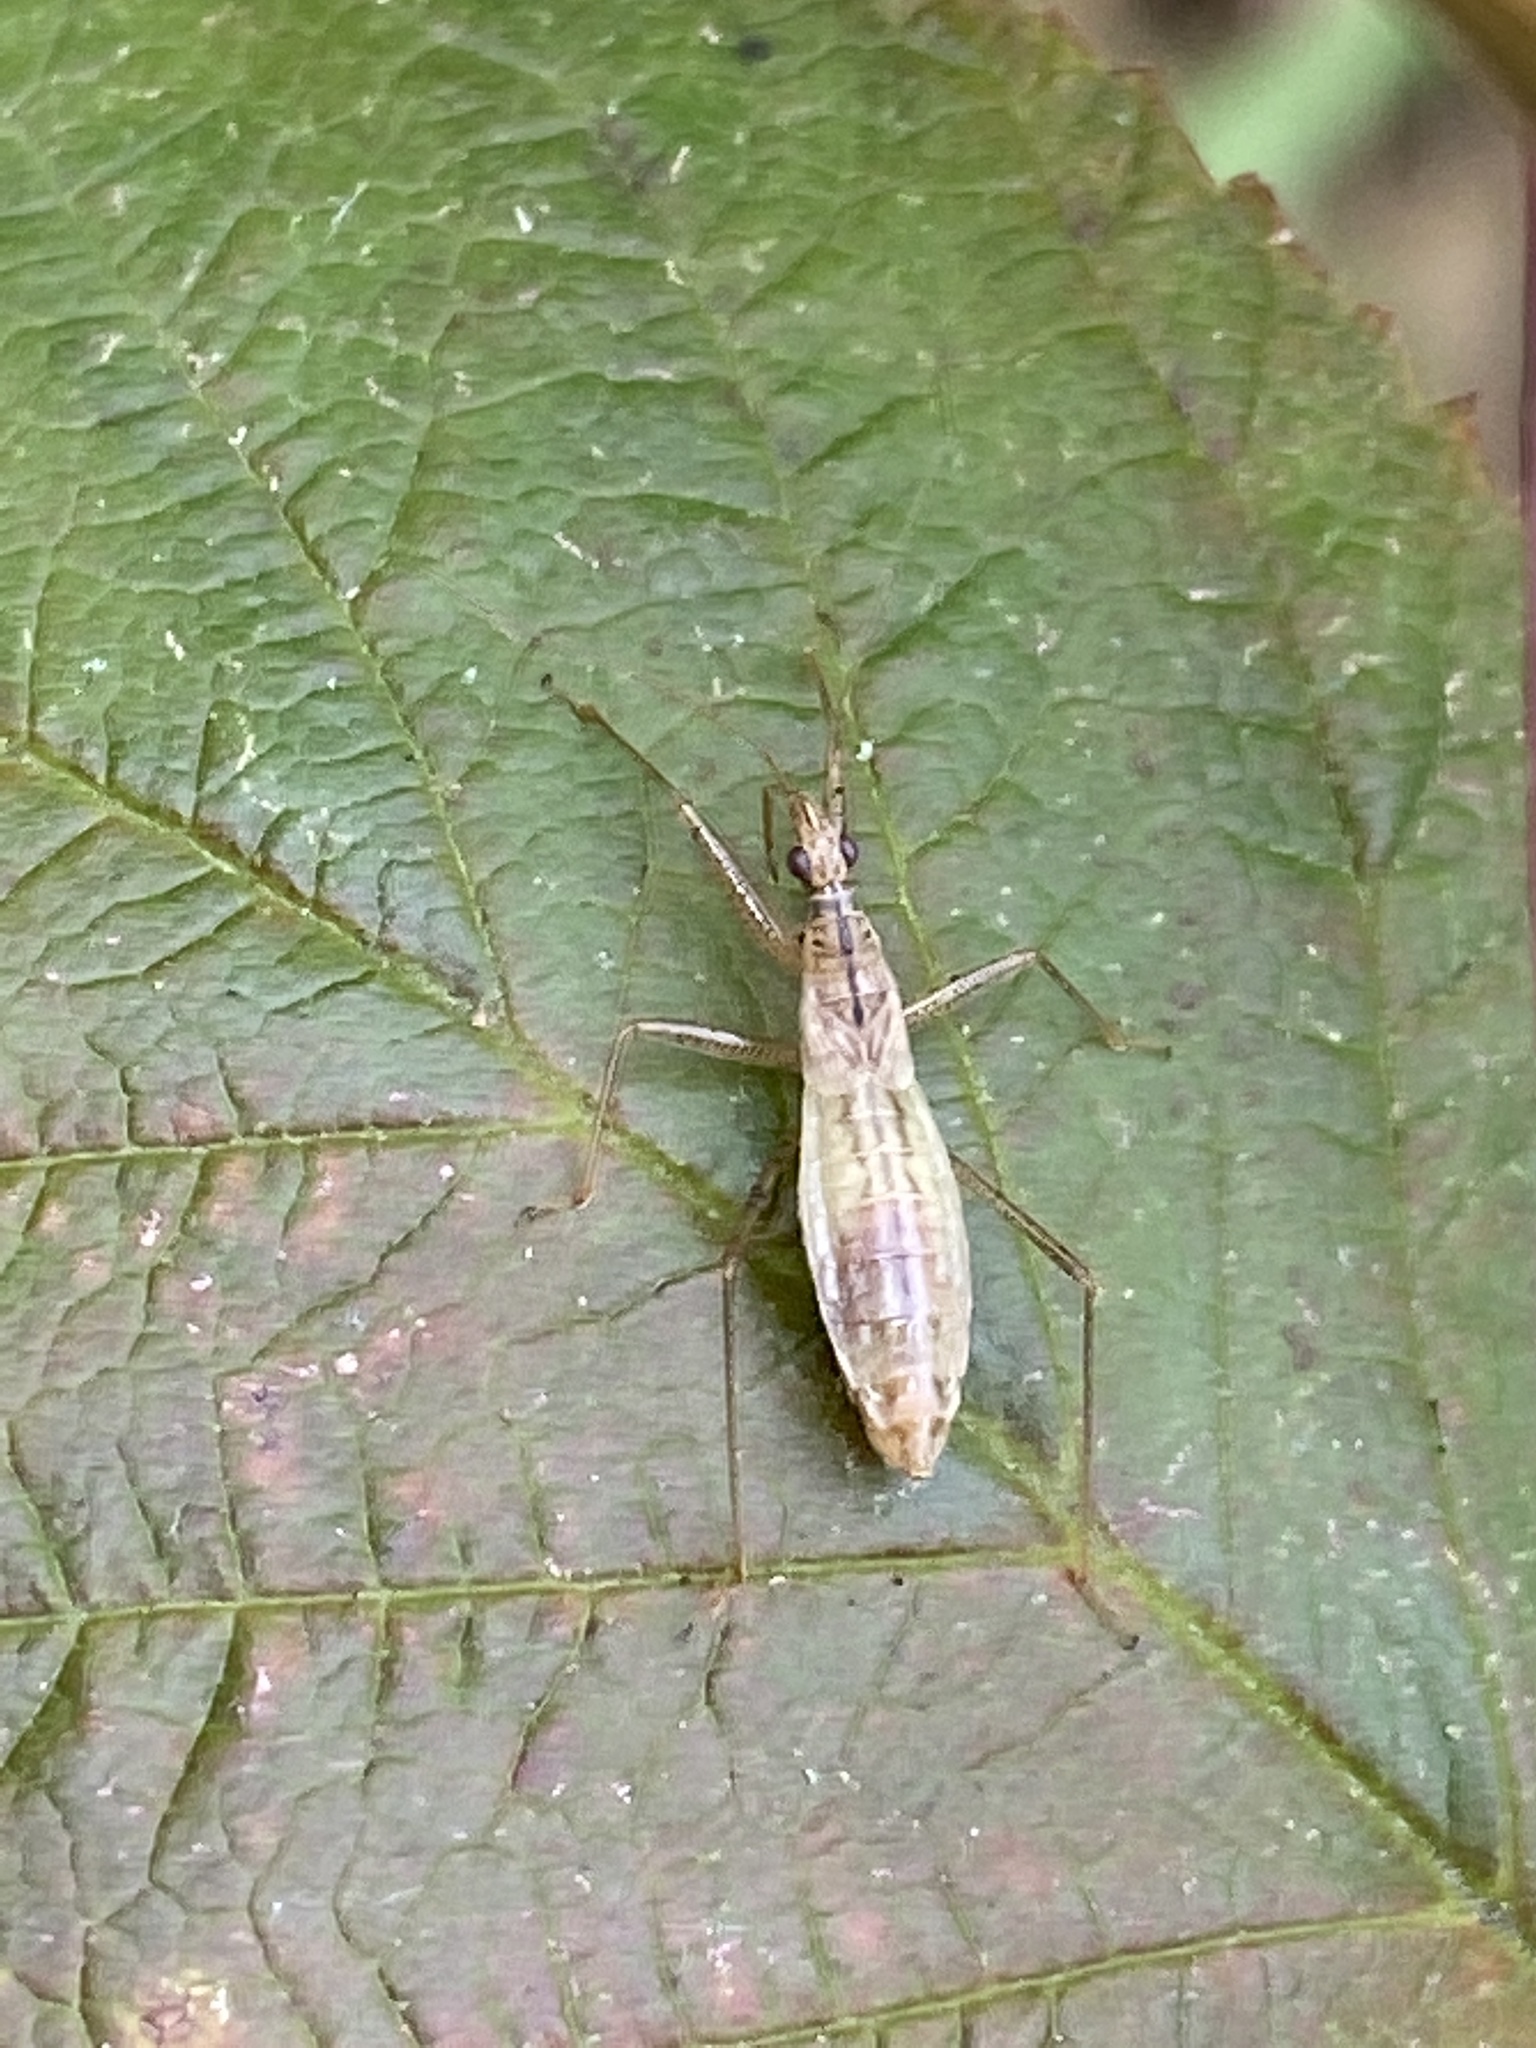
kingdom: Animalia
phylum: Arthropoda
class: Insecta
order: Hemiptera
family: Nabidae
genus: Nabis
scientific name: Nabis limbatus
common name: Marsh damselbug
